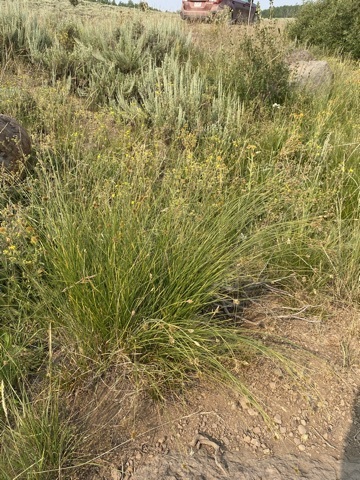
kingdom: Plantae
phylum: Tracheophyta
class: Liliopsida
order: Poales
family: Cyperaceae
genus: Carex
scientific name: Carex hoodii
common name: Hood's sedge
